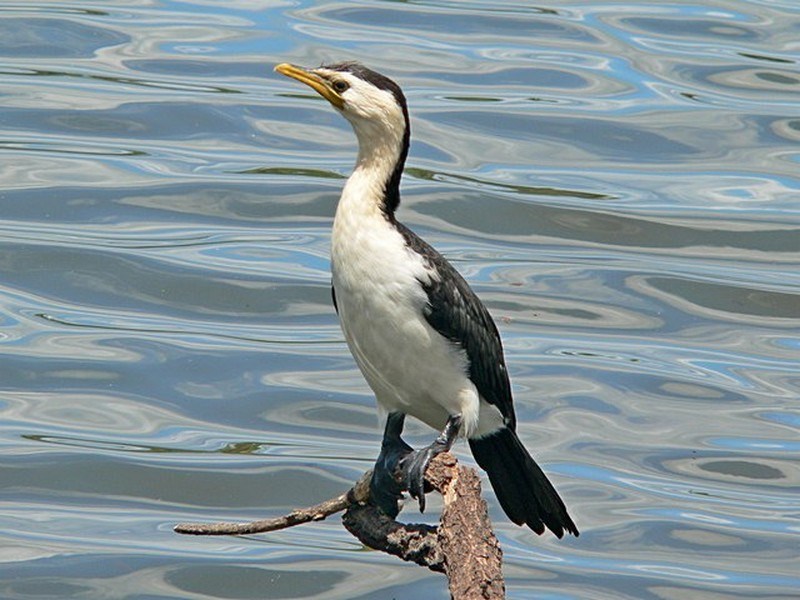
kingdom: Animalia
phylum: Chordata
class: Aves
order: Suliformes
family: Phalacrocoracidae
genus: Microcarbo
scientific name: Microcarbo melanoleucos
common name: Little pied cormorant
